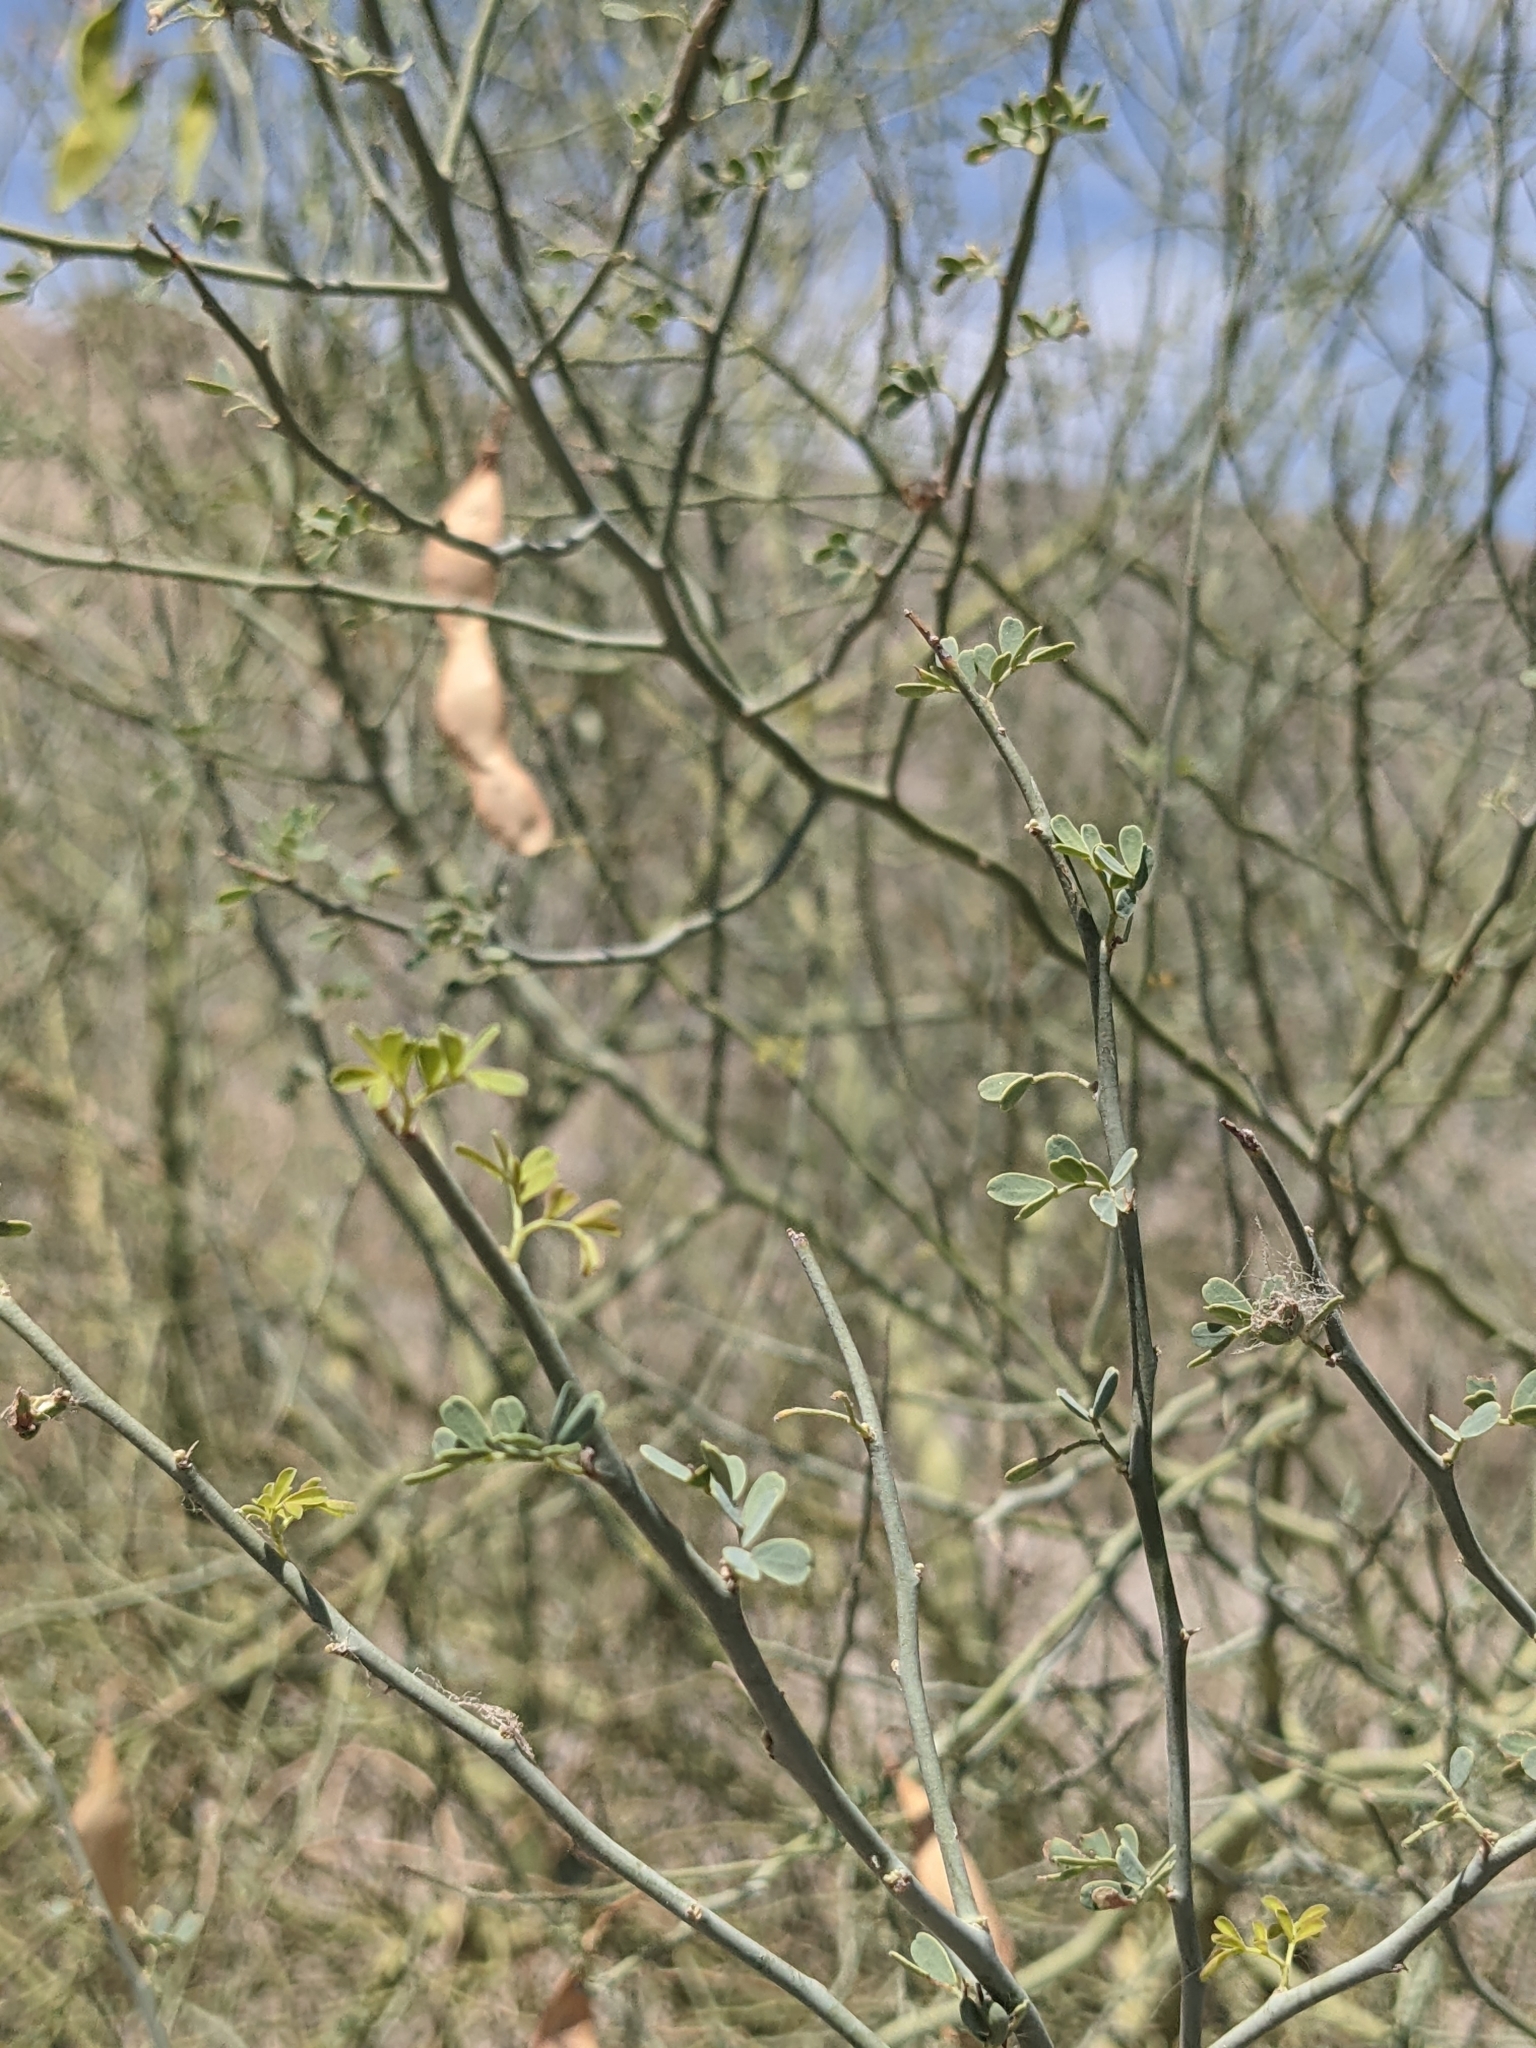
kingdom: Plantae
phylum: Tracheophyta
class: Magnoliopsida
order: Fabales
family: Fabaceae
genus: Parkinsonia
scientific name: Parkinsonia florida
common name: Blue paloverde
